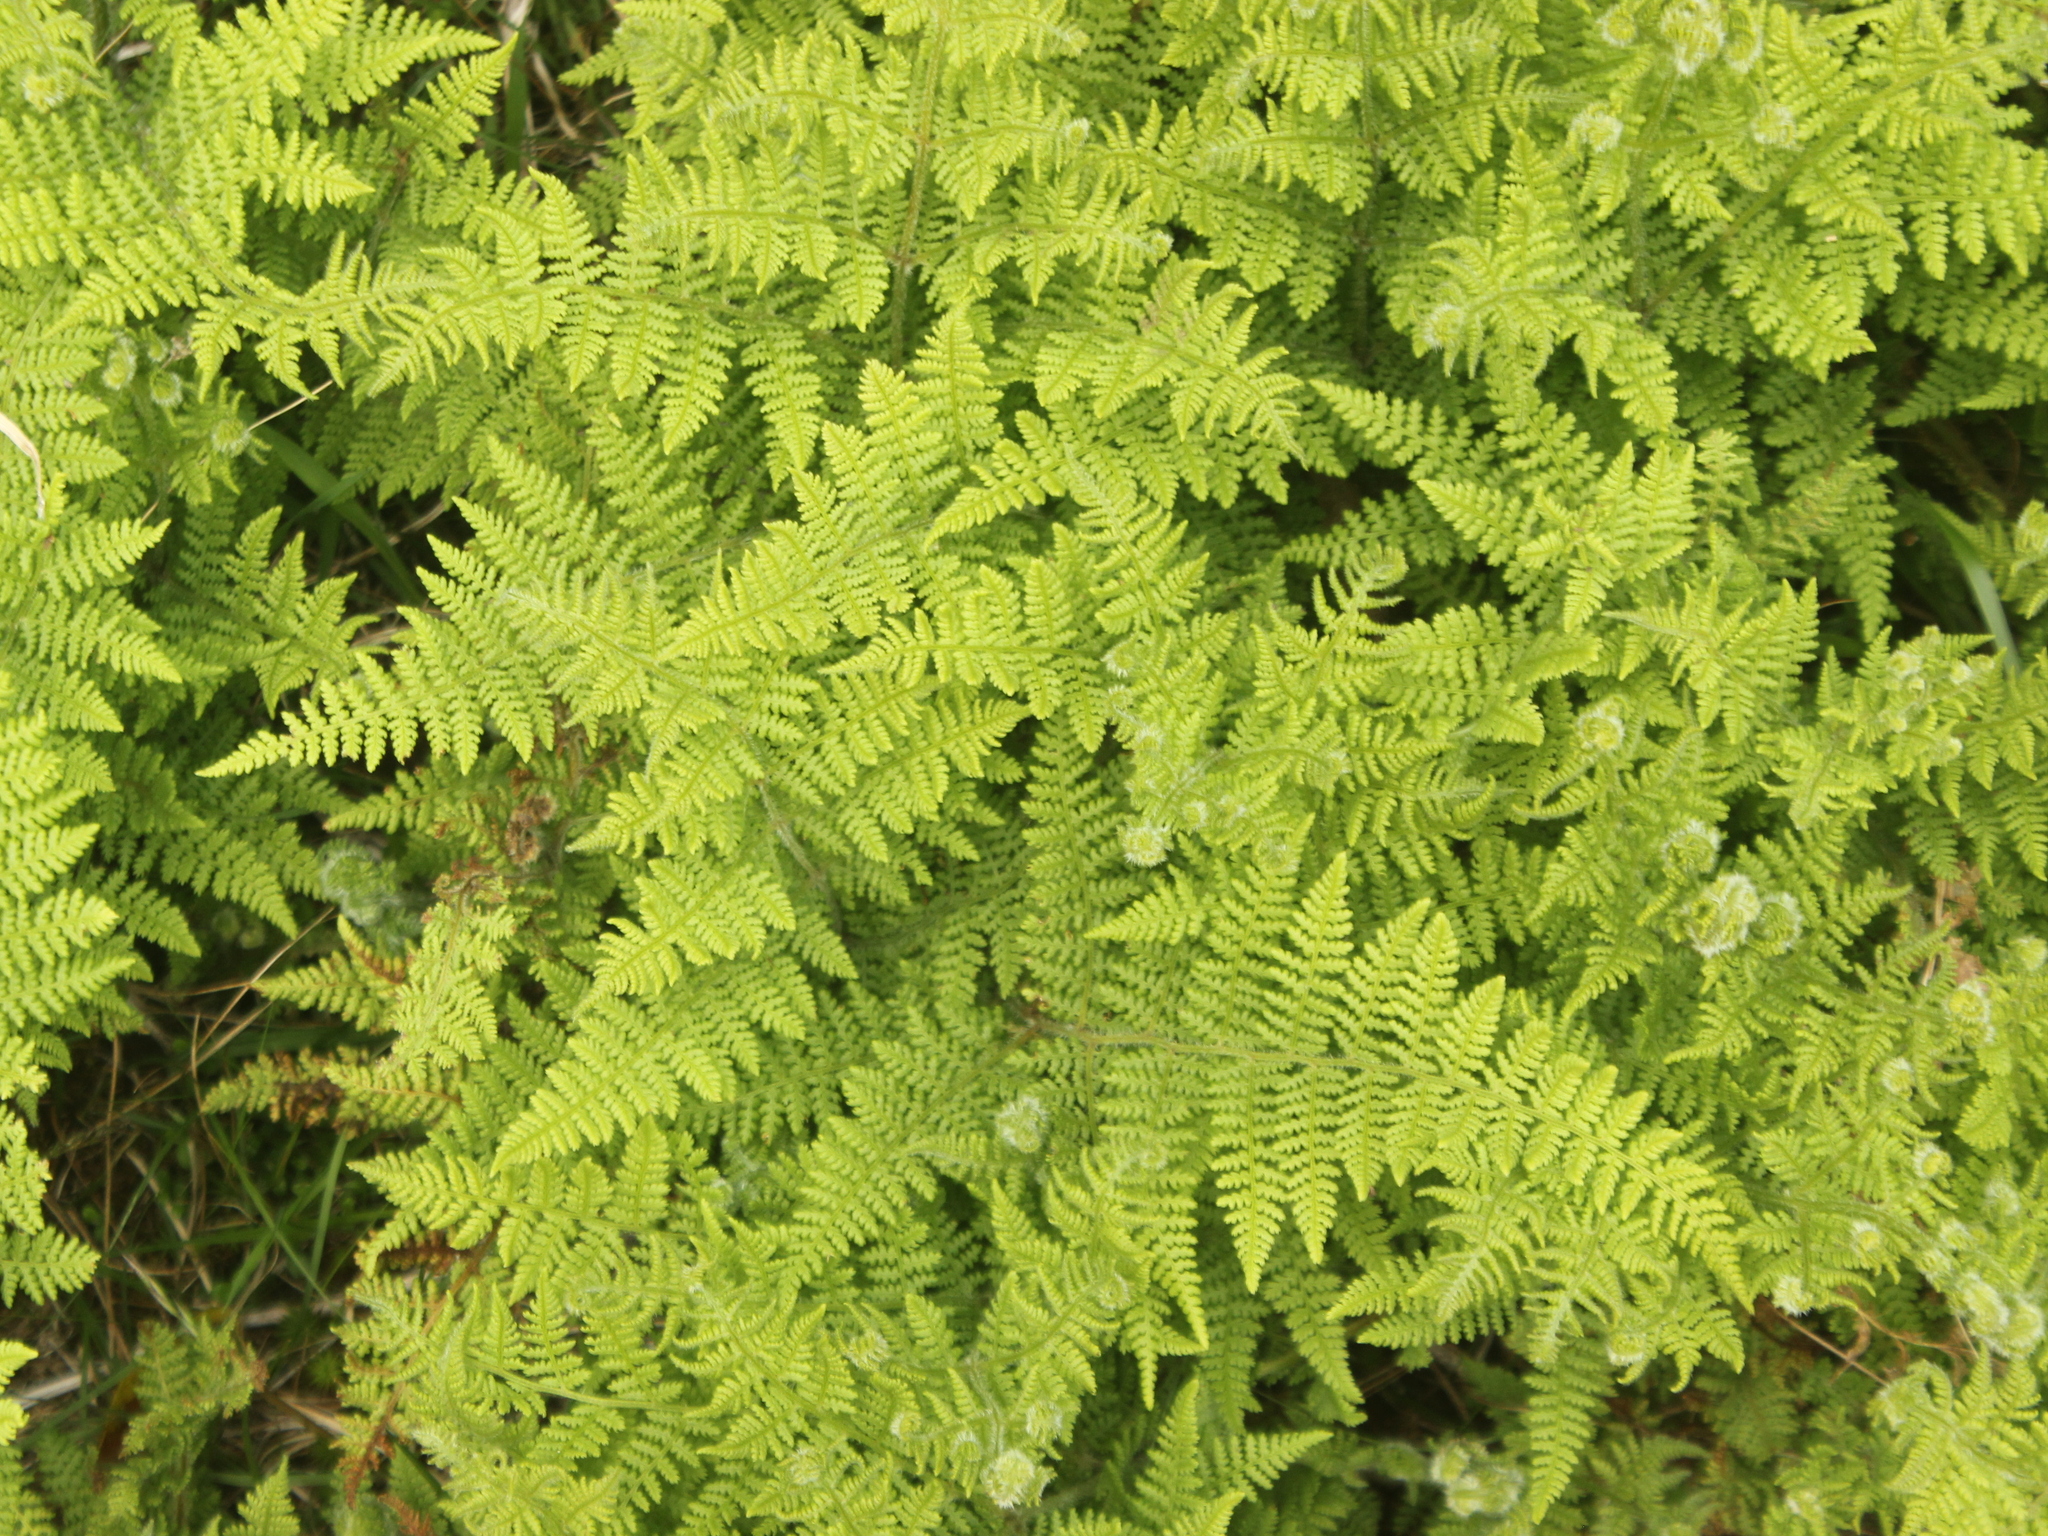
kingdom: Plantae
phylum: Tracheophyta
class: Polypodiopsida
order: Polypodiales
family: Dennstaedtiaceae
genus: Hypolepis
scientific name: Hypolepis millefolium
